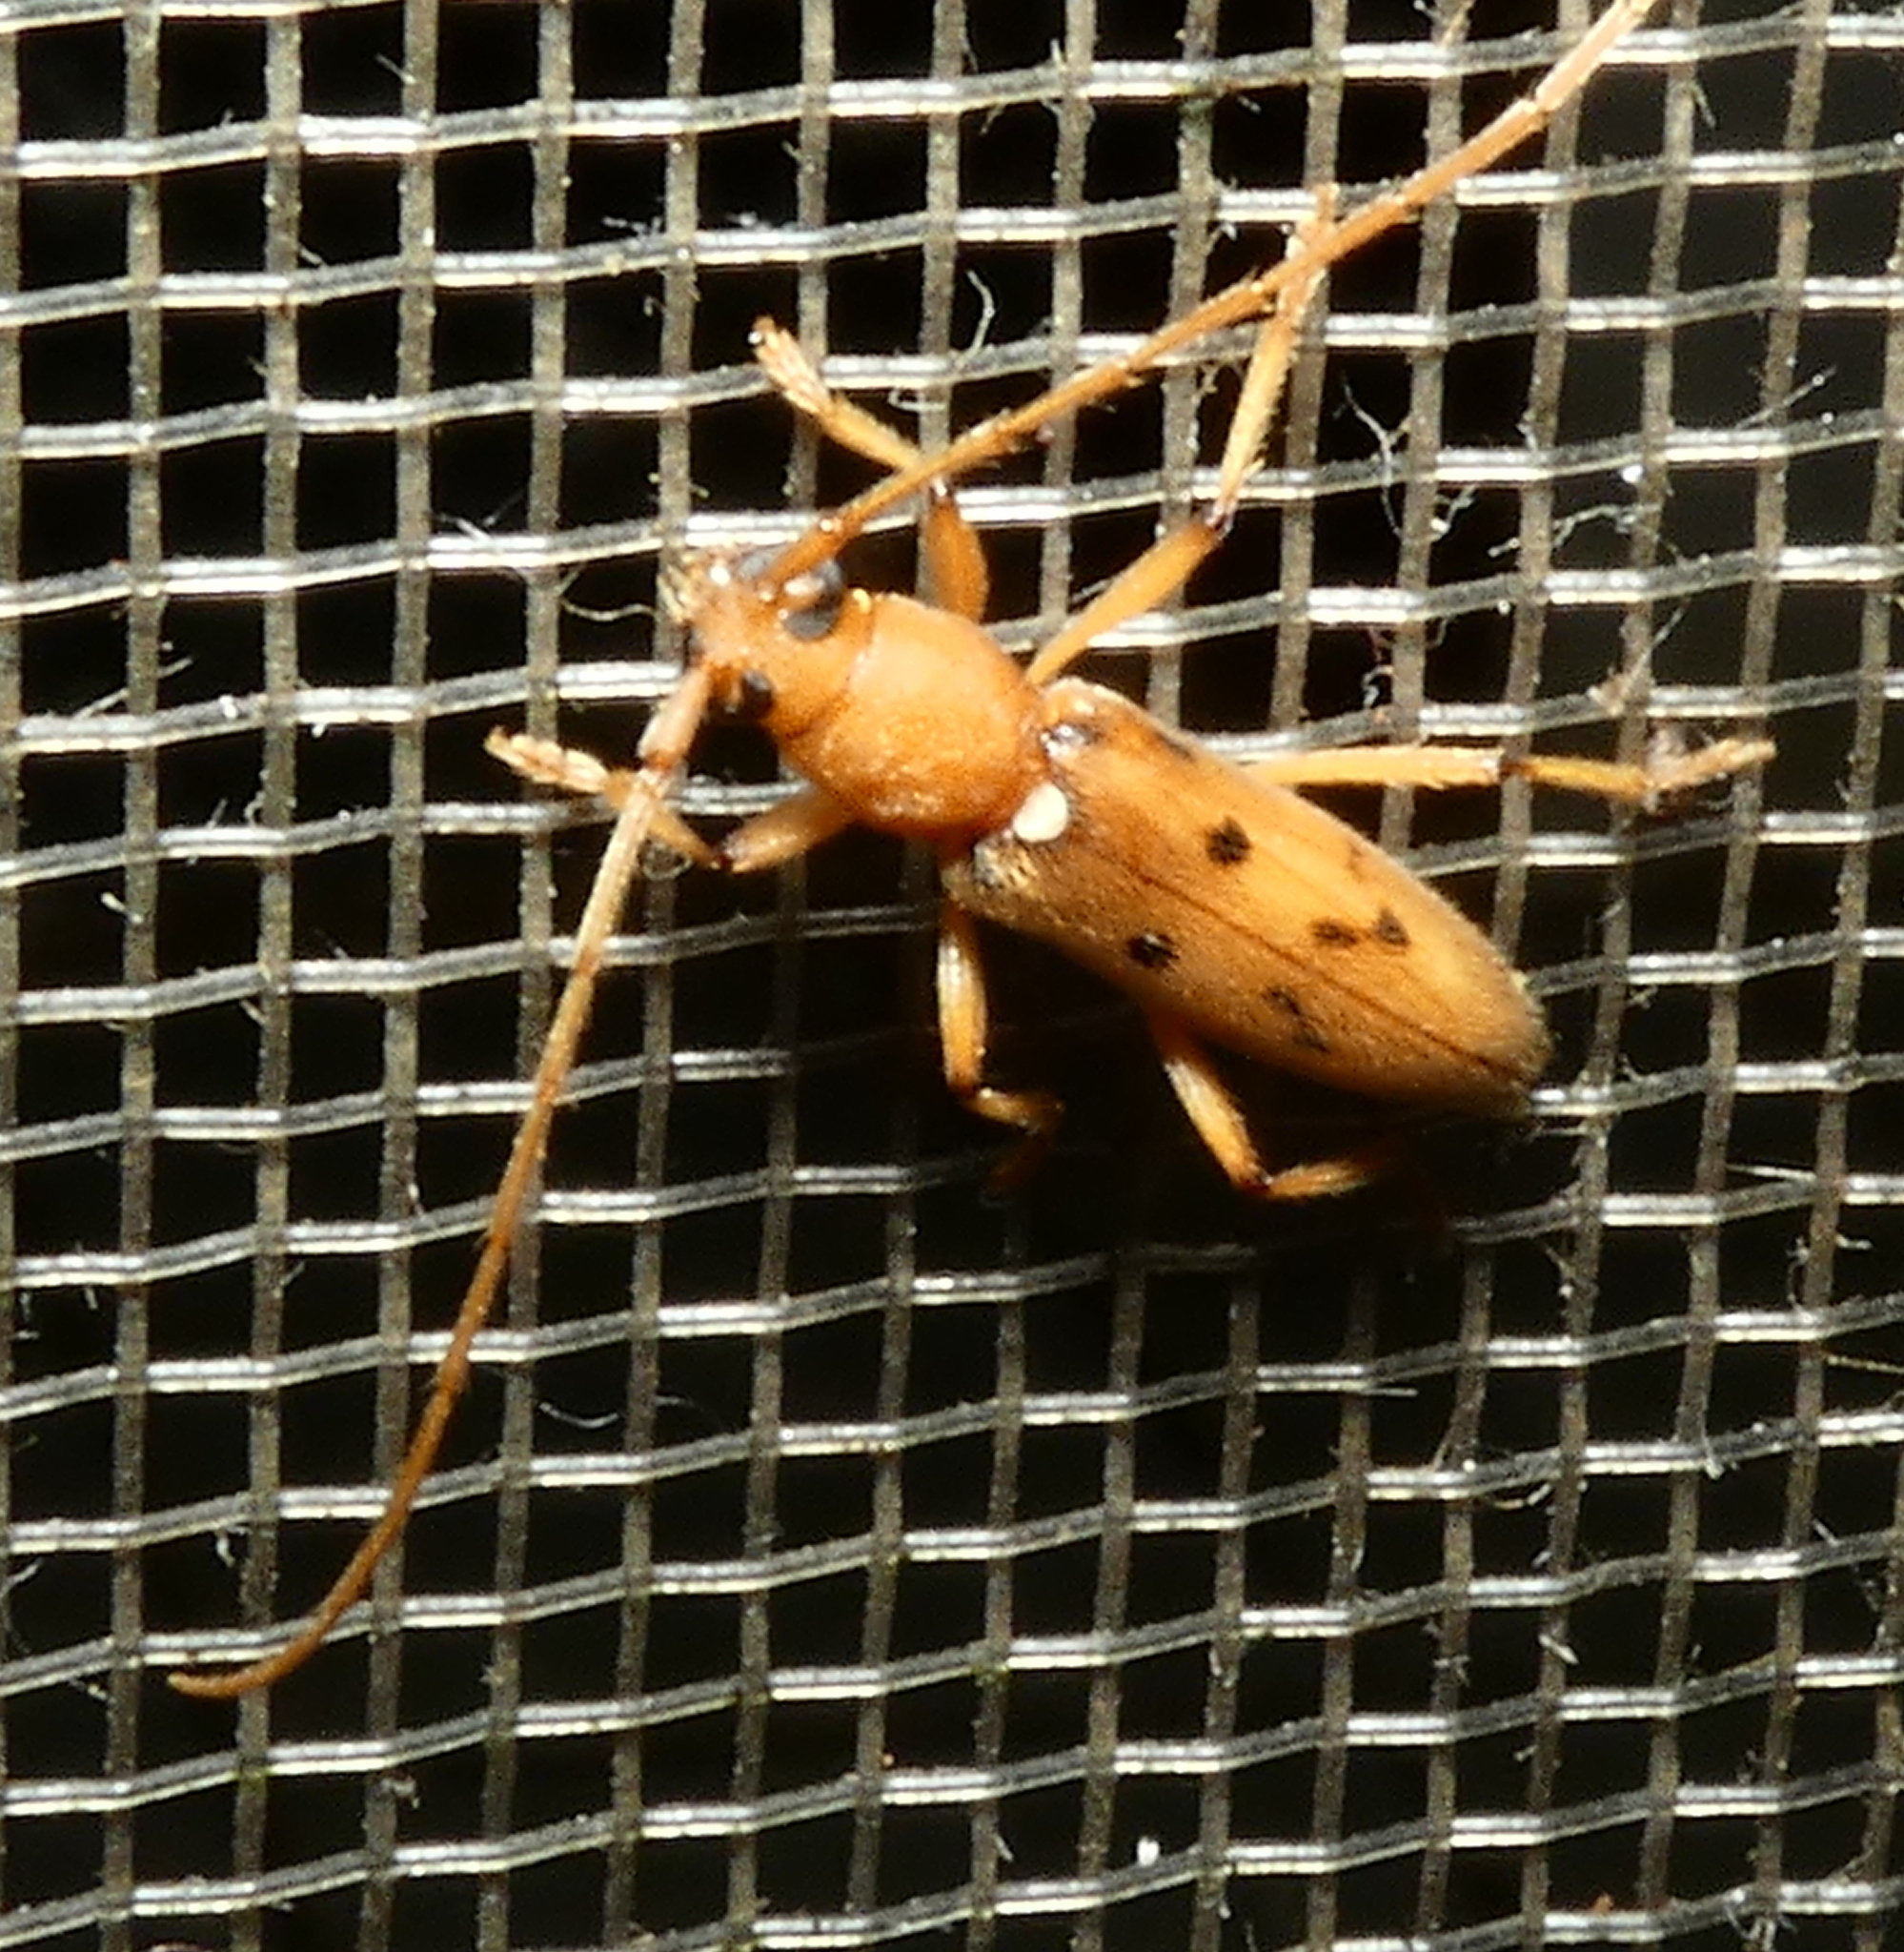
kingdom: Animalia
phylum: Arthropoda
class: Insecta
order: Coleoptera
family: Cerambycidae
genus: Achryson
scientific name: Achryson surinamum
